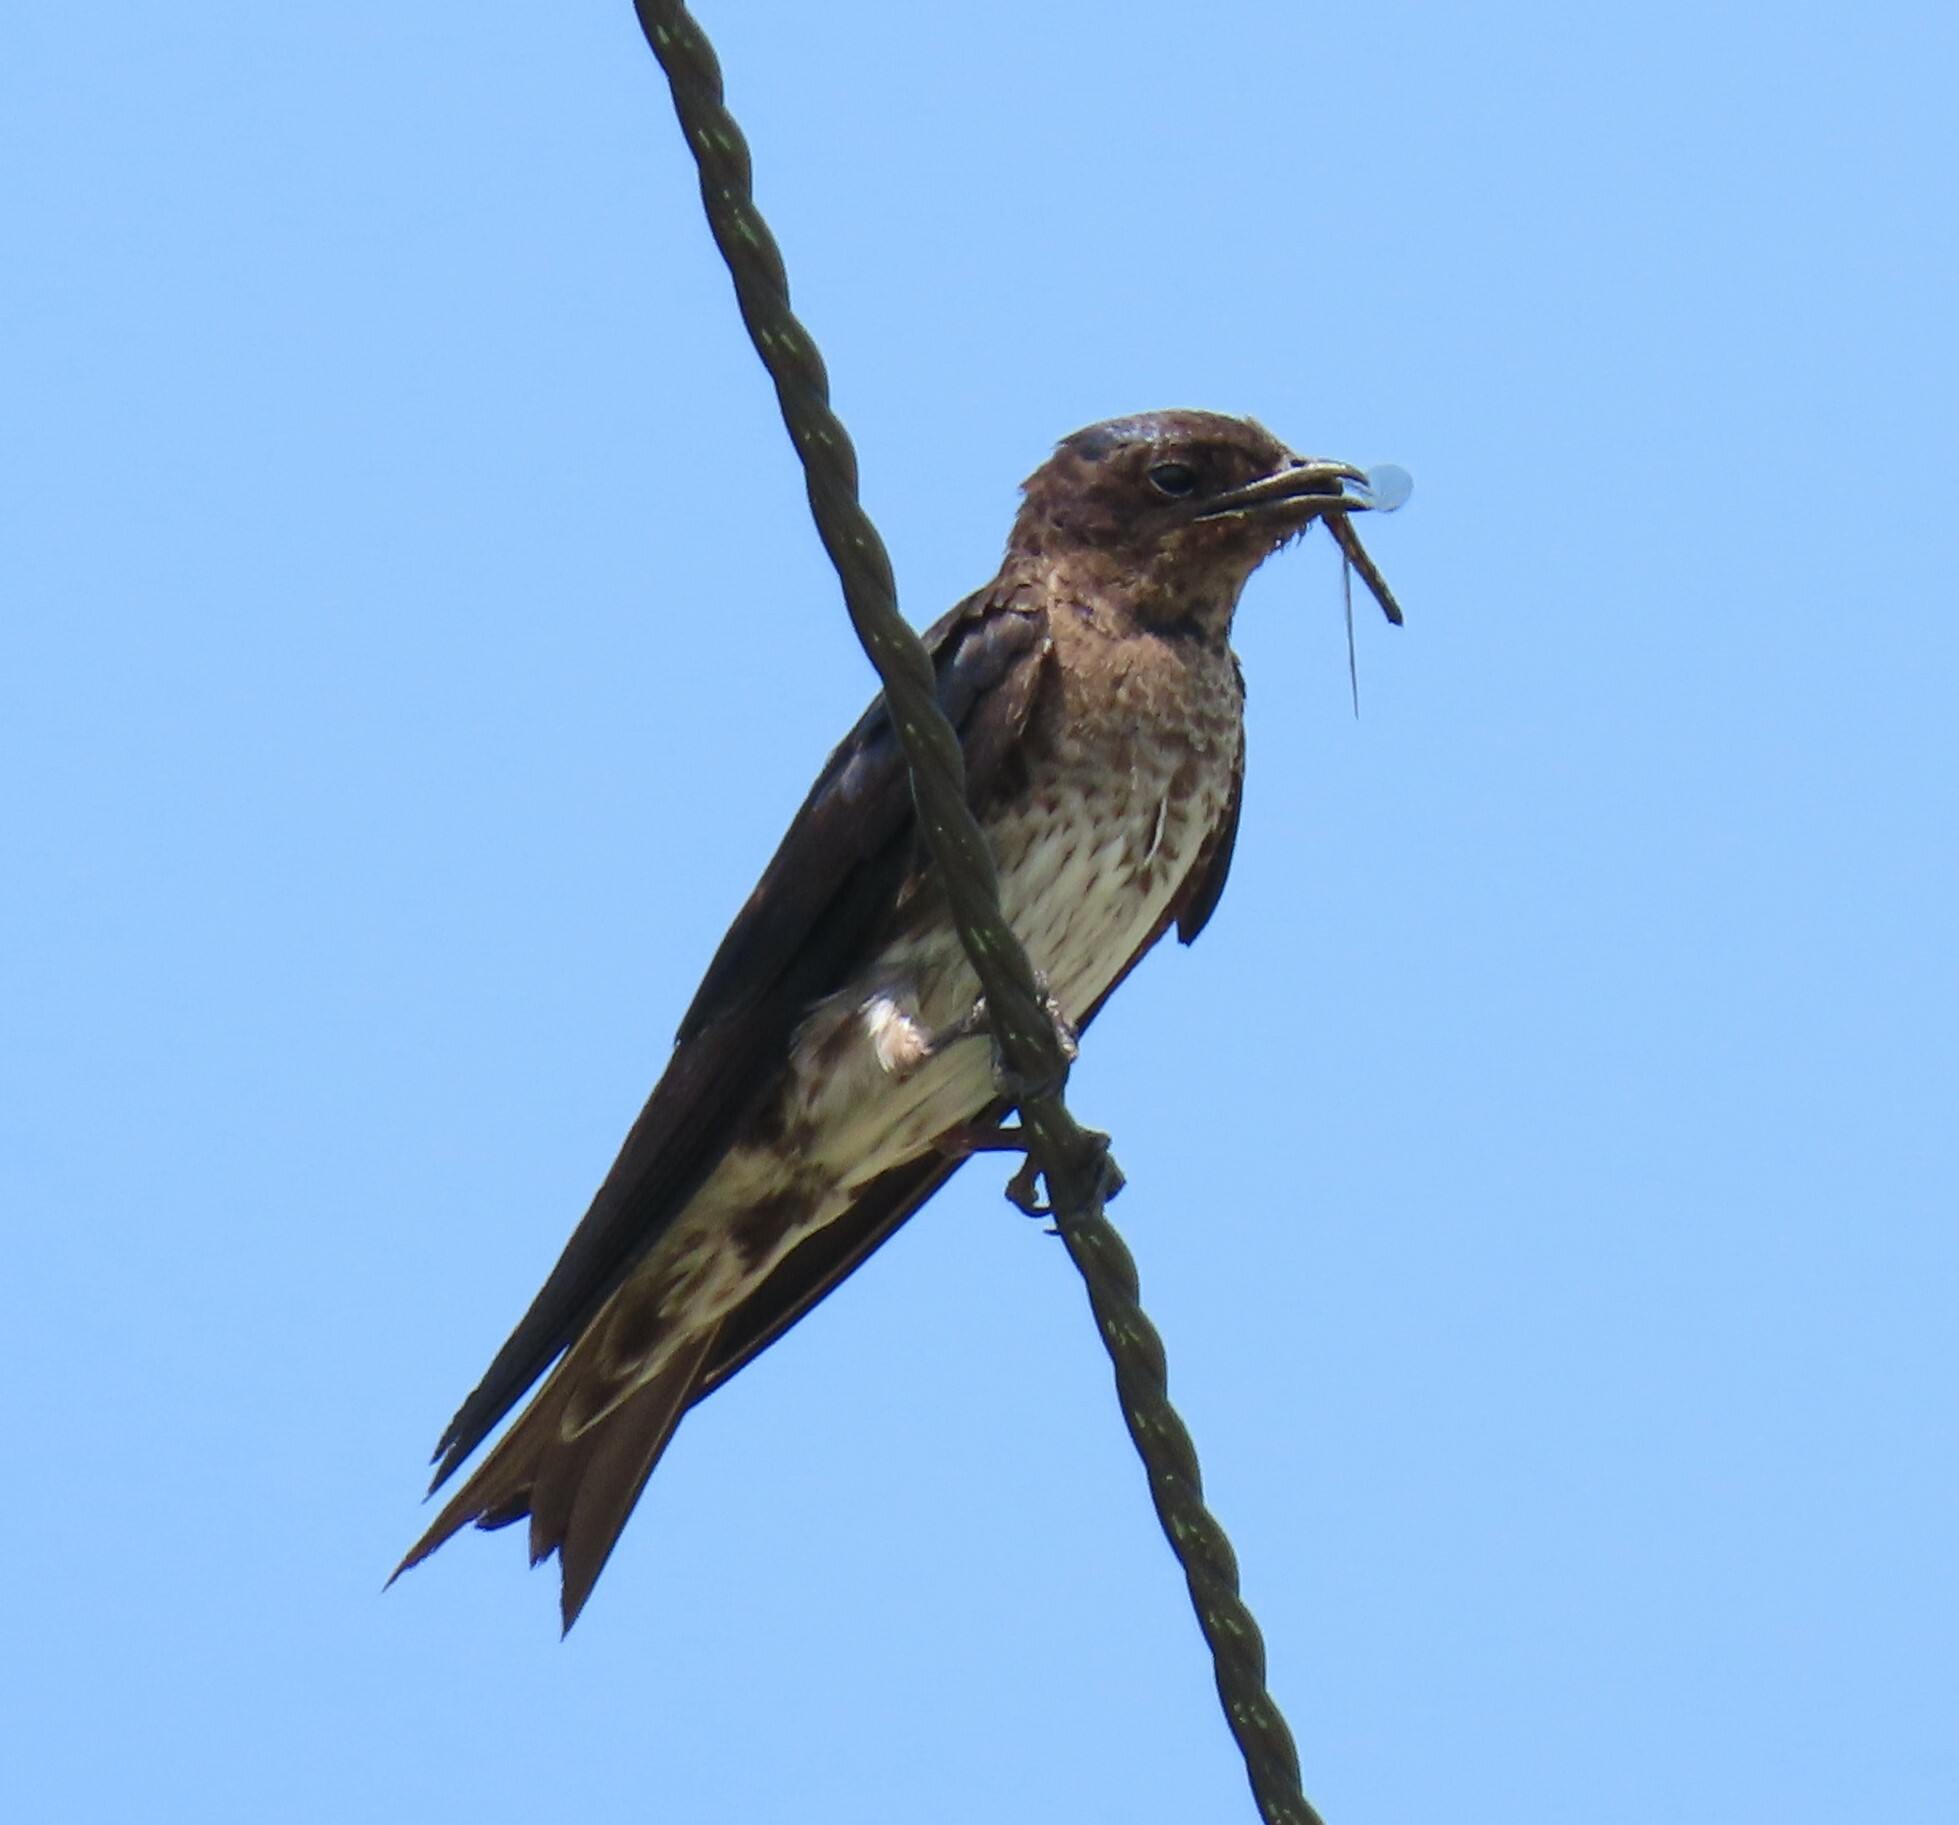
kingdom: Animalia
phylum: Chordata
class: Aves
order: Passeriformes
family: Hirundinidae
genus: Progne
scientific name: Progne subis
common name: Purple martin
